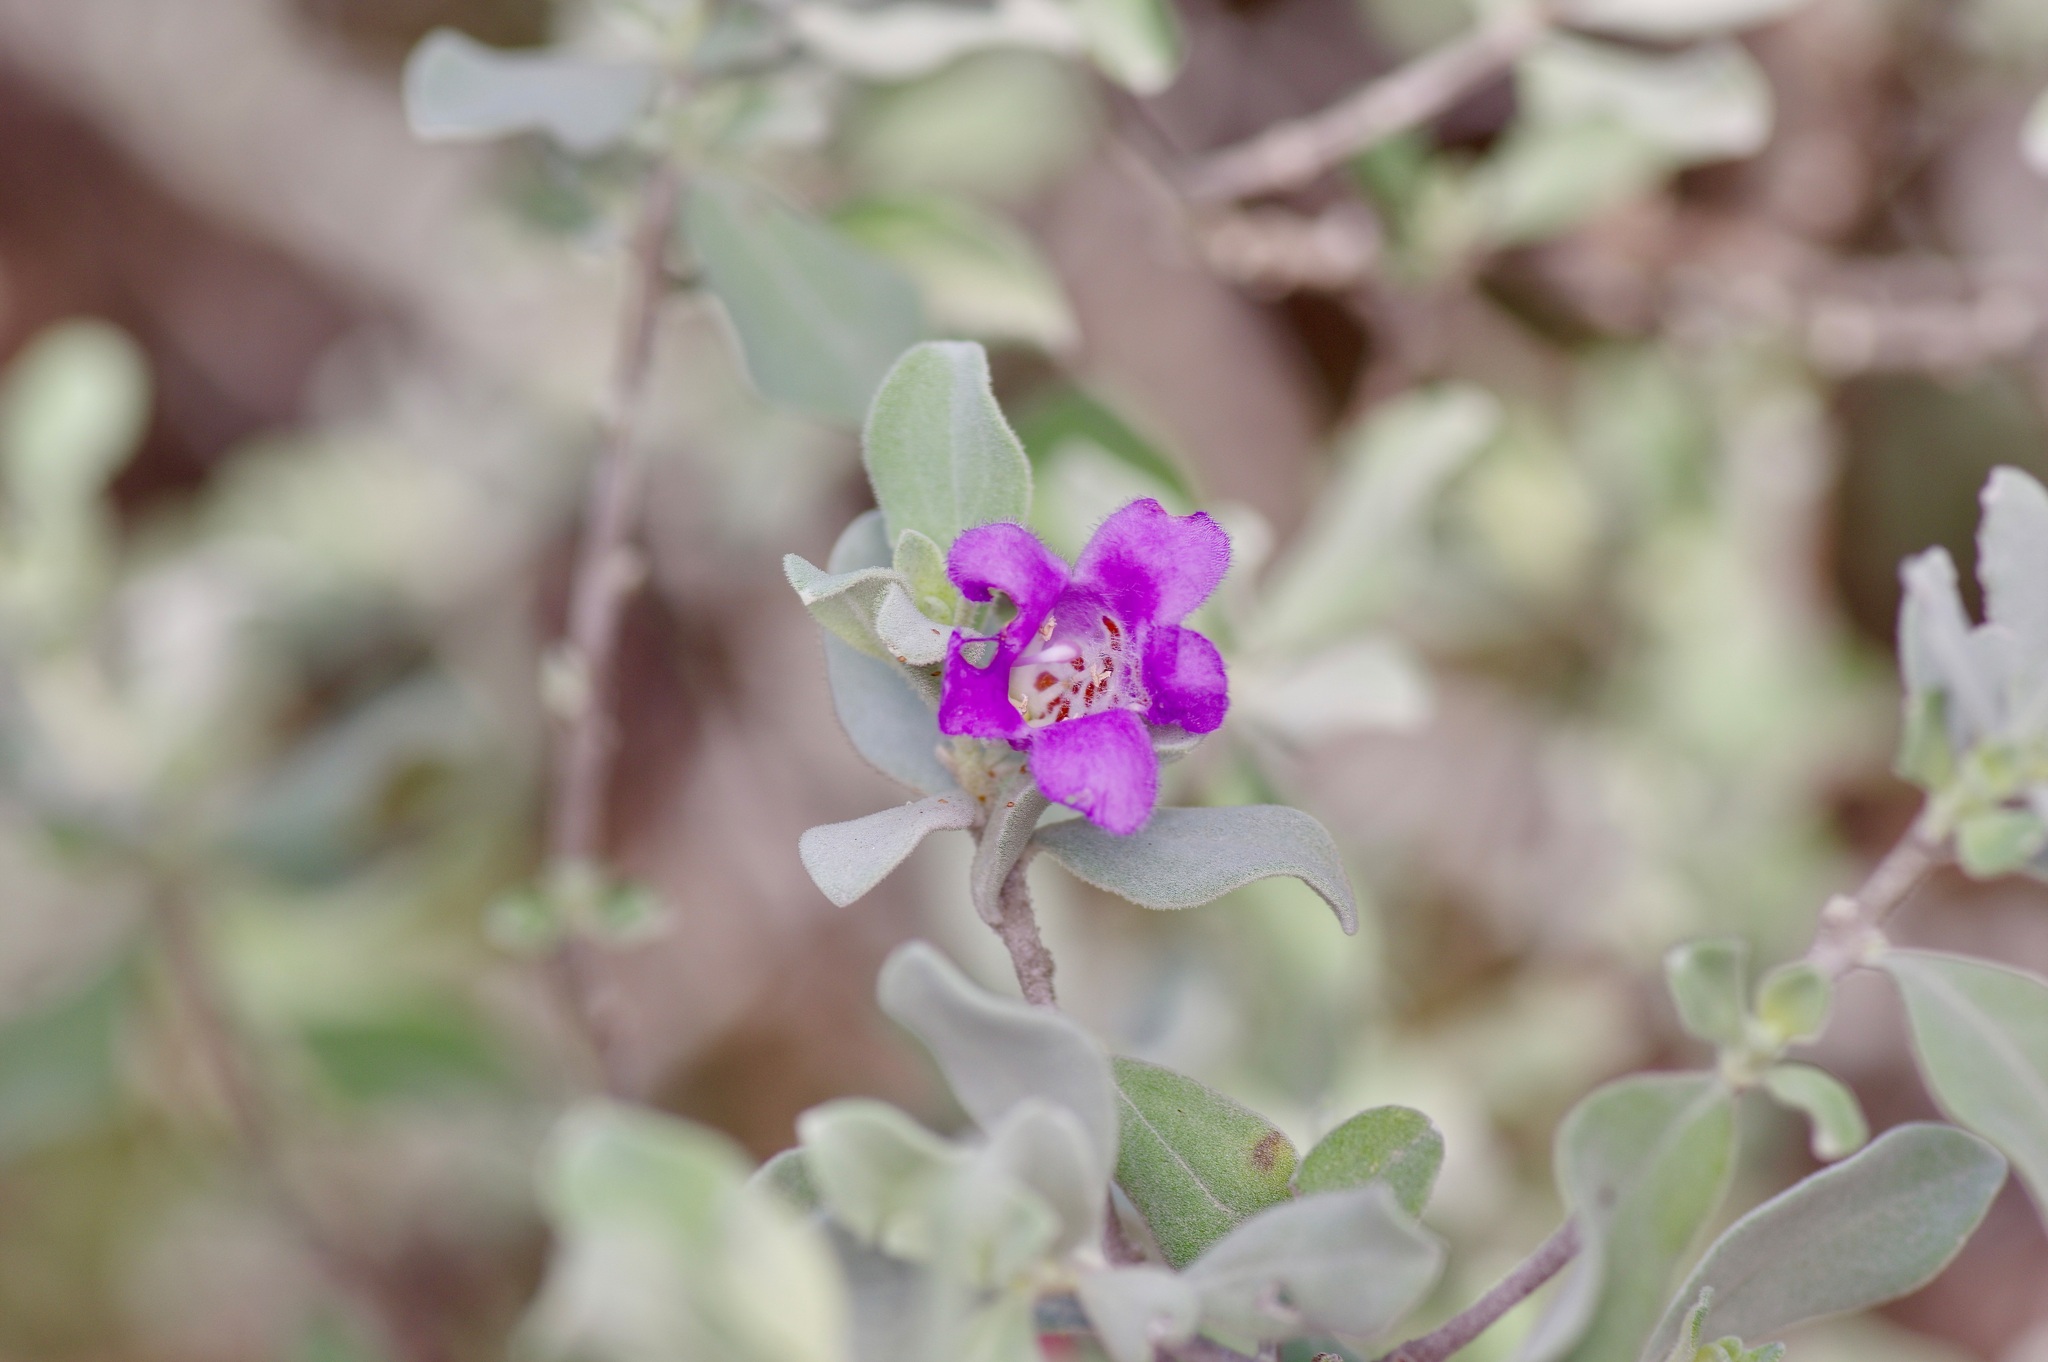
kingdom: Plantae
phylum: Tracheophyta
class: Magnoliopsida
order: Lamiales
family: Scrophulariaceae
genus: Leucophyllum
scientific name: Leucophyllum frutescens
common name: Texas silverleaf
